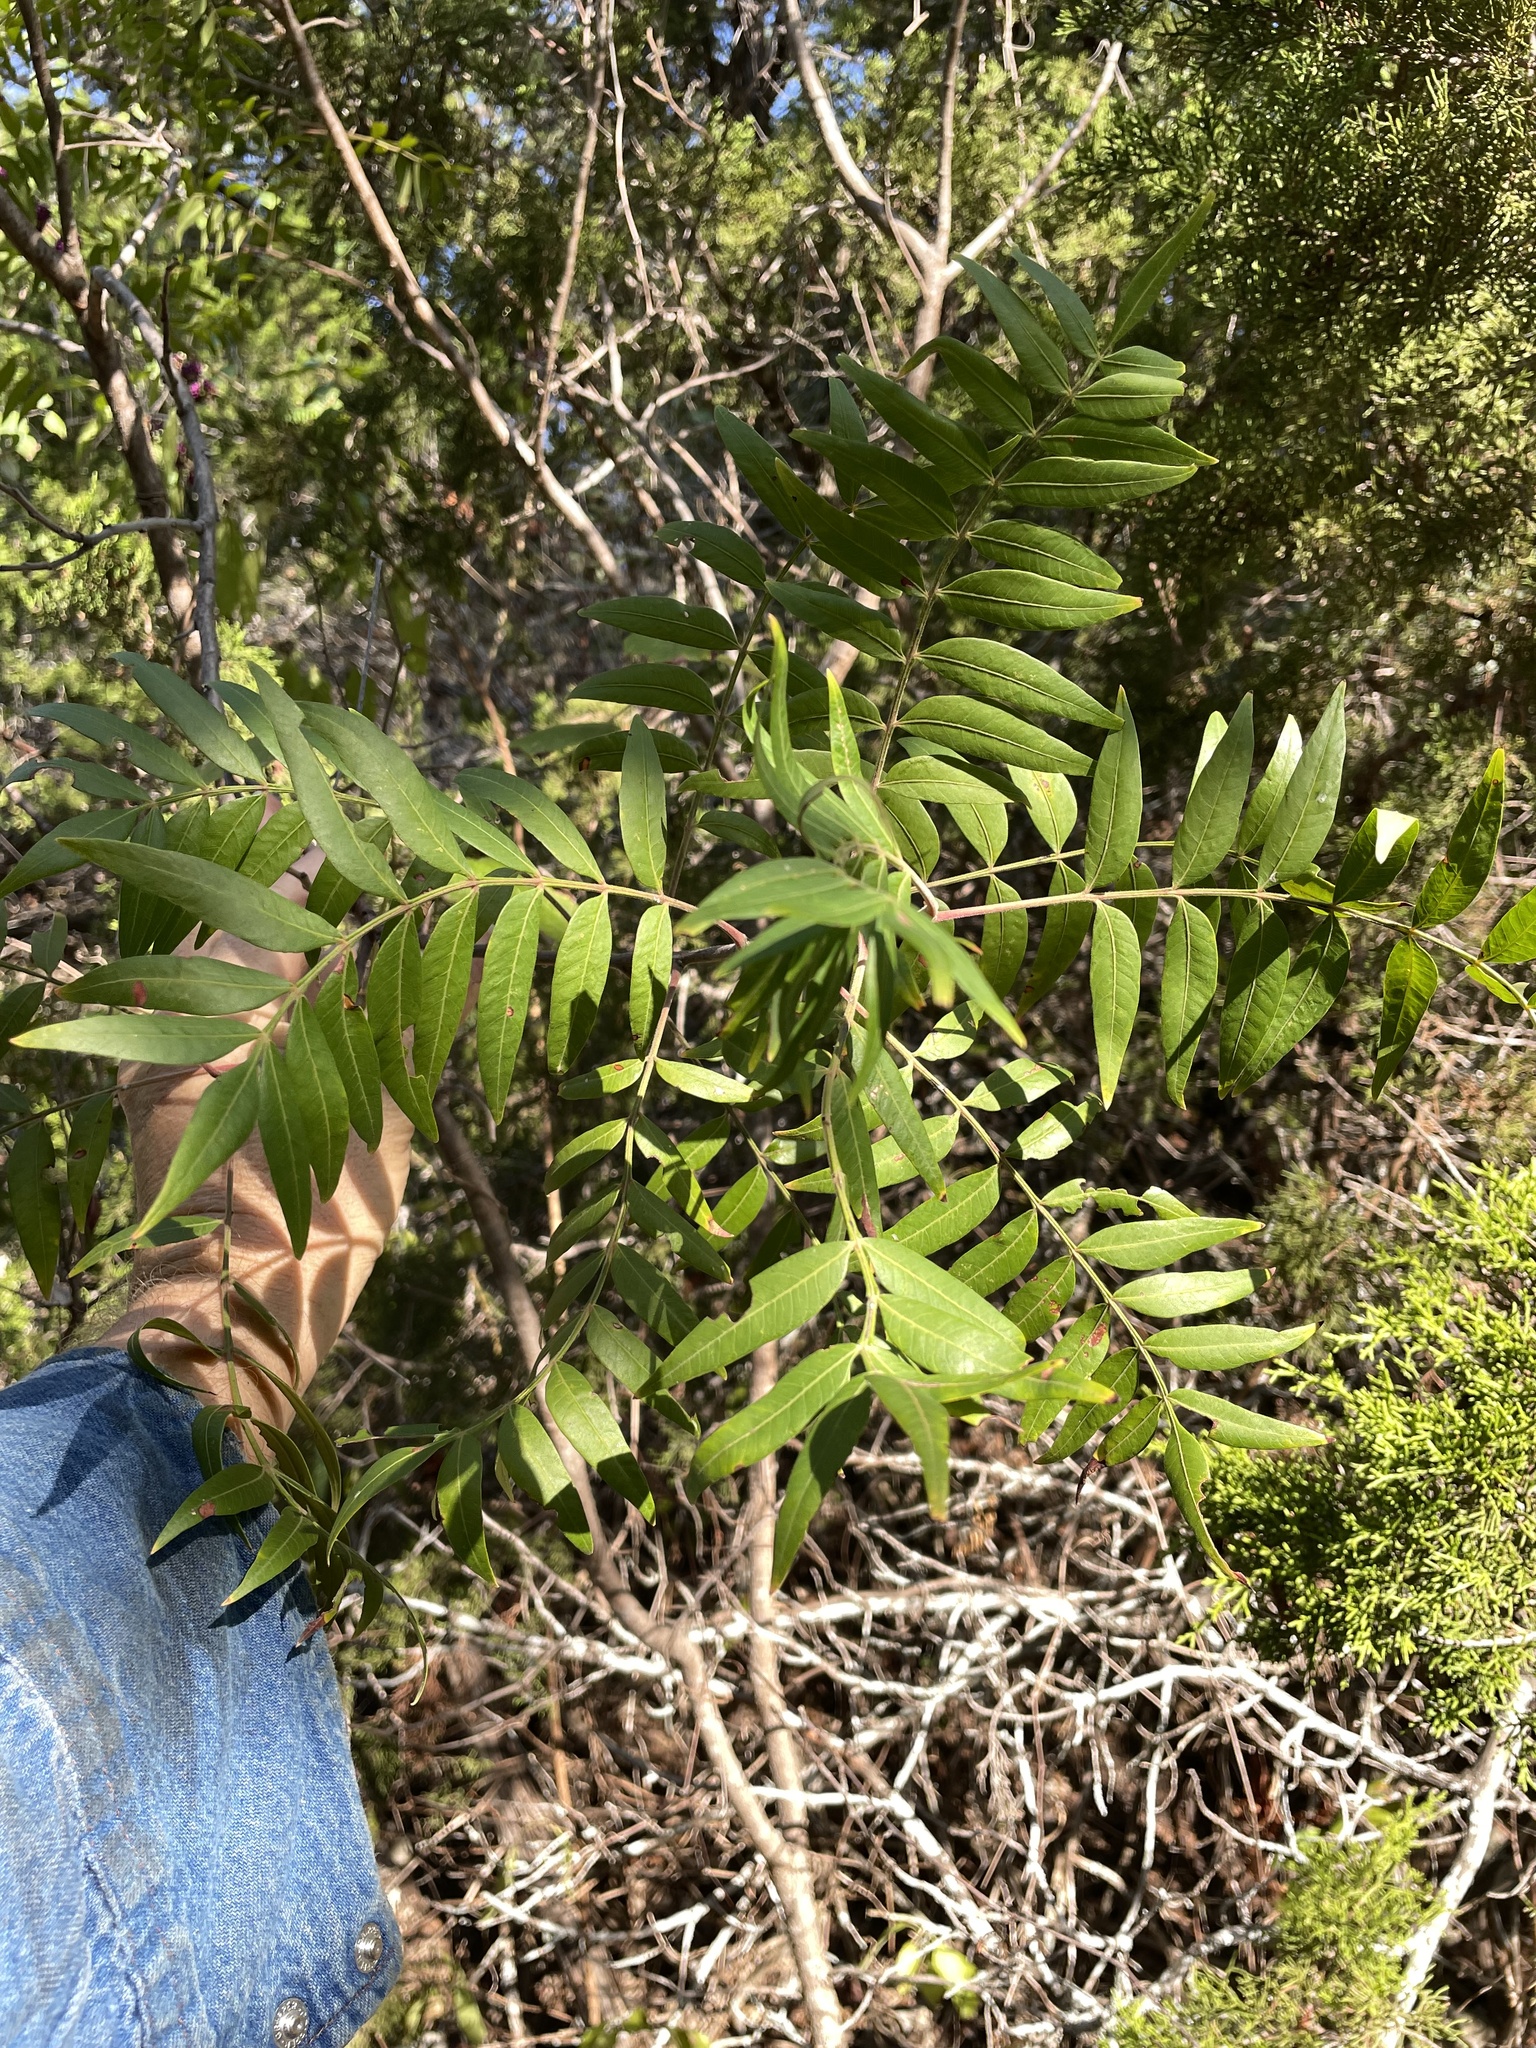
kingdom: Plantae
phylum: Tracheophyta
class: Magnoliopsida
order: Sapindales
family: Anacardiaceae
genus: Rhus
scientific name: Rhus lanceolata
